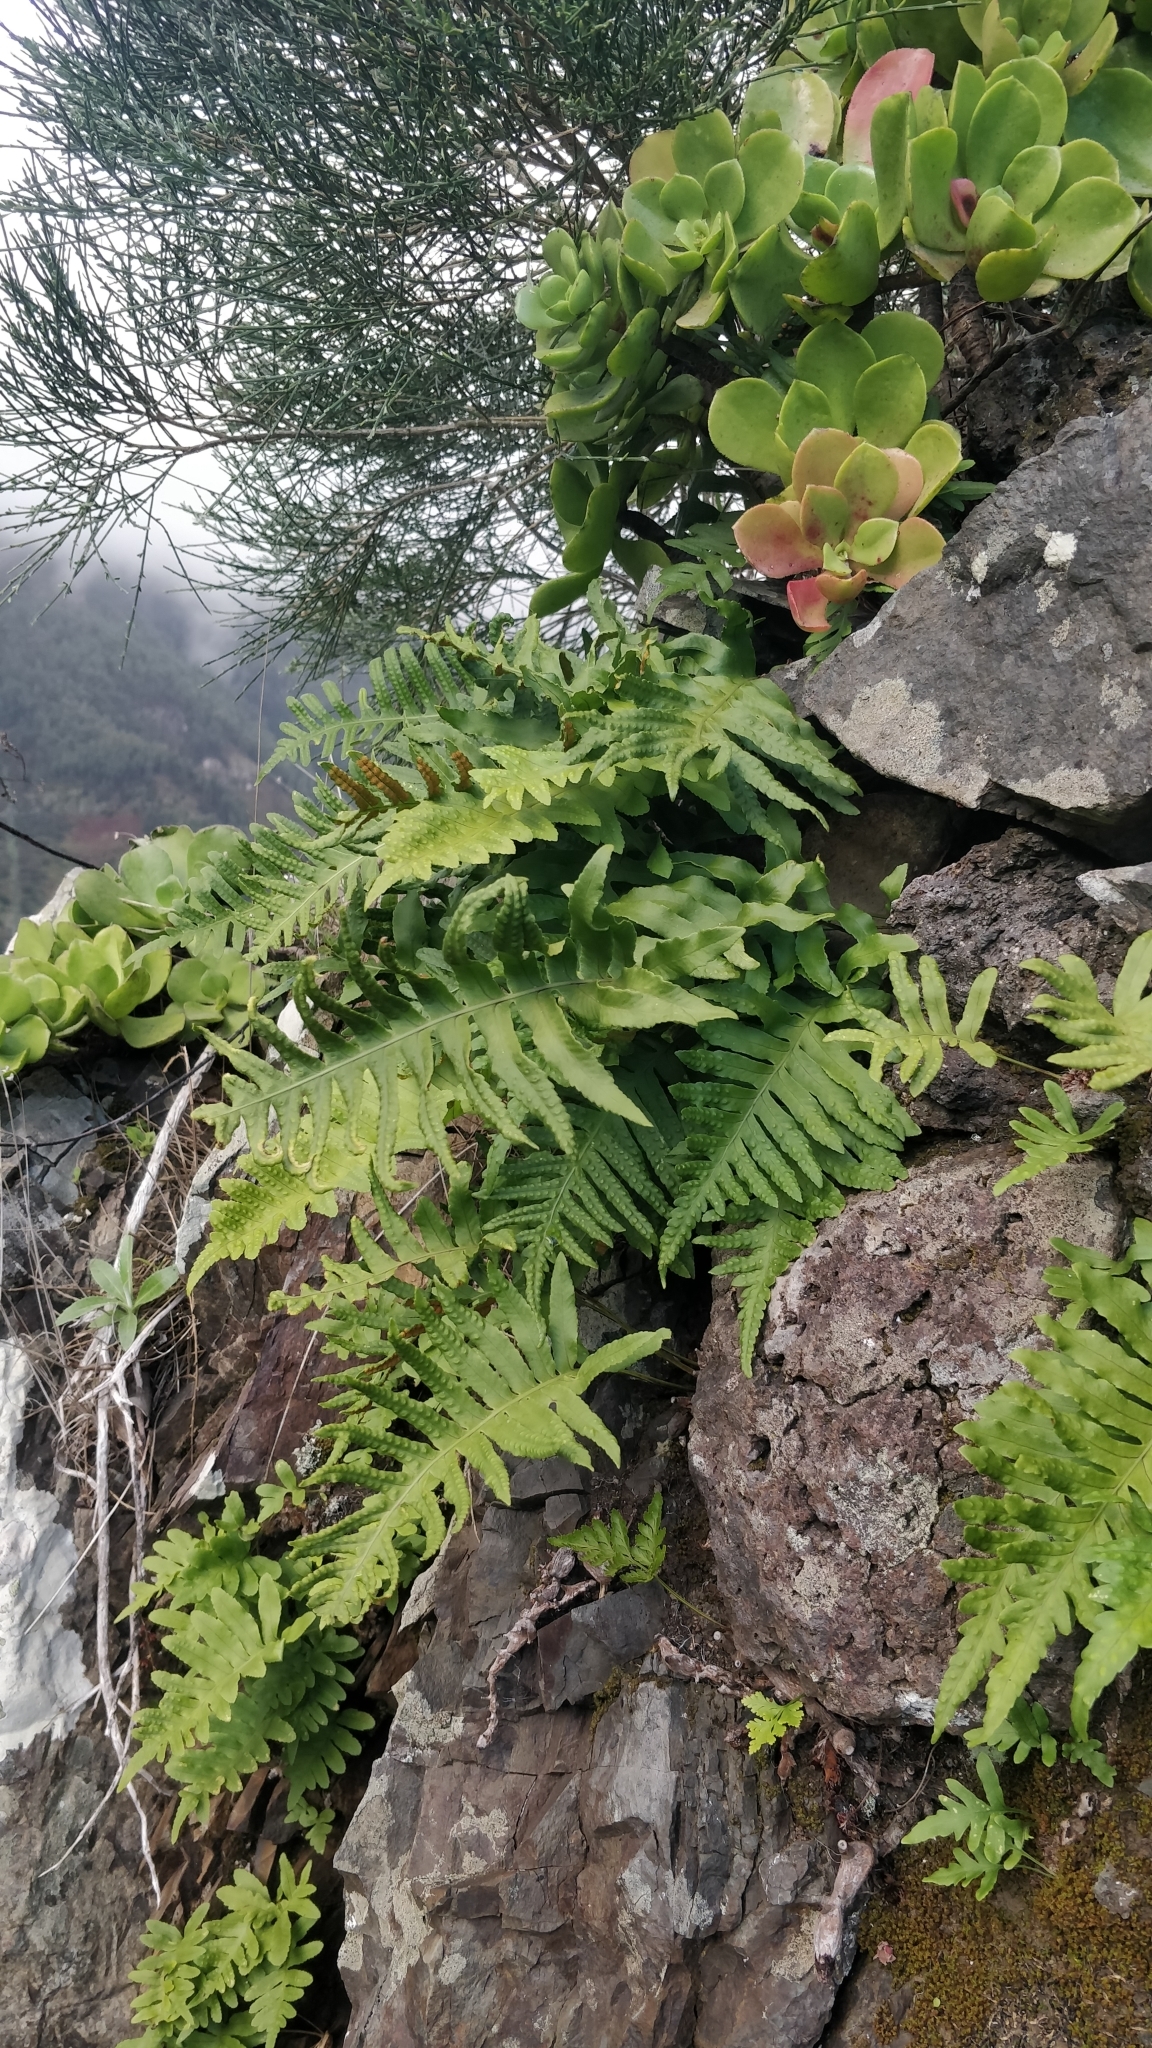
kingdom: Plantae
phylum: Tracheophyta
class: Polypodiopsida
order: Polypodiales
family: Polypodiaceae
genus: Polypodium
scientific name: Polypodium macaronesicum
